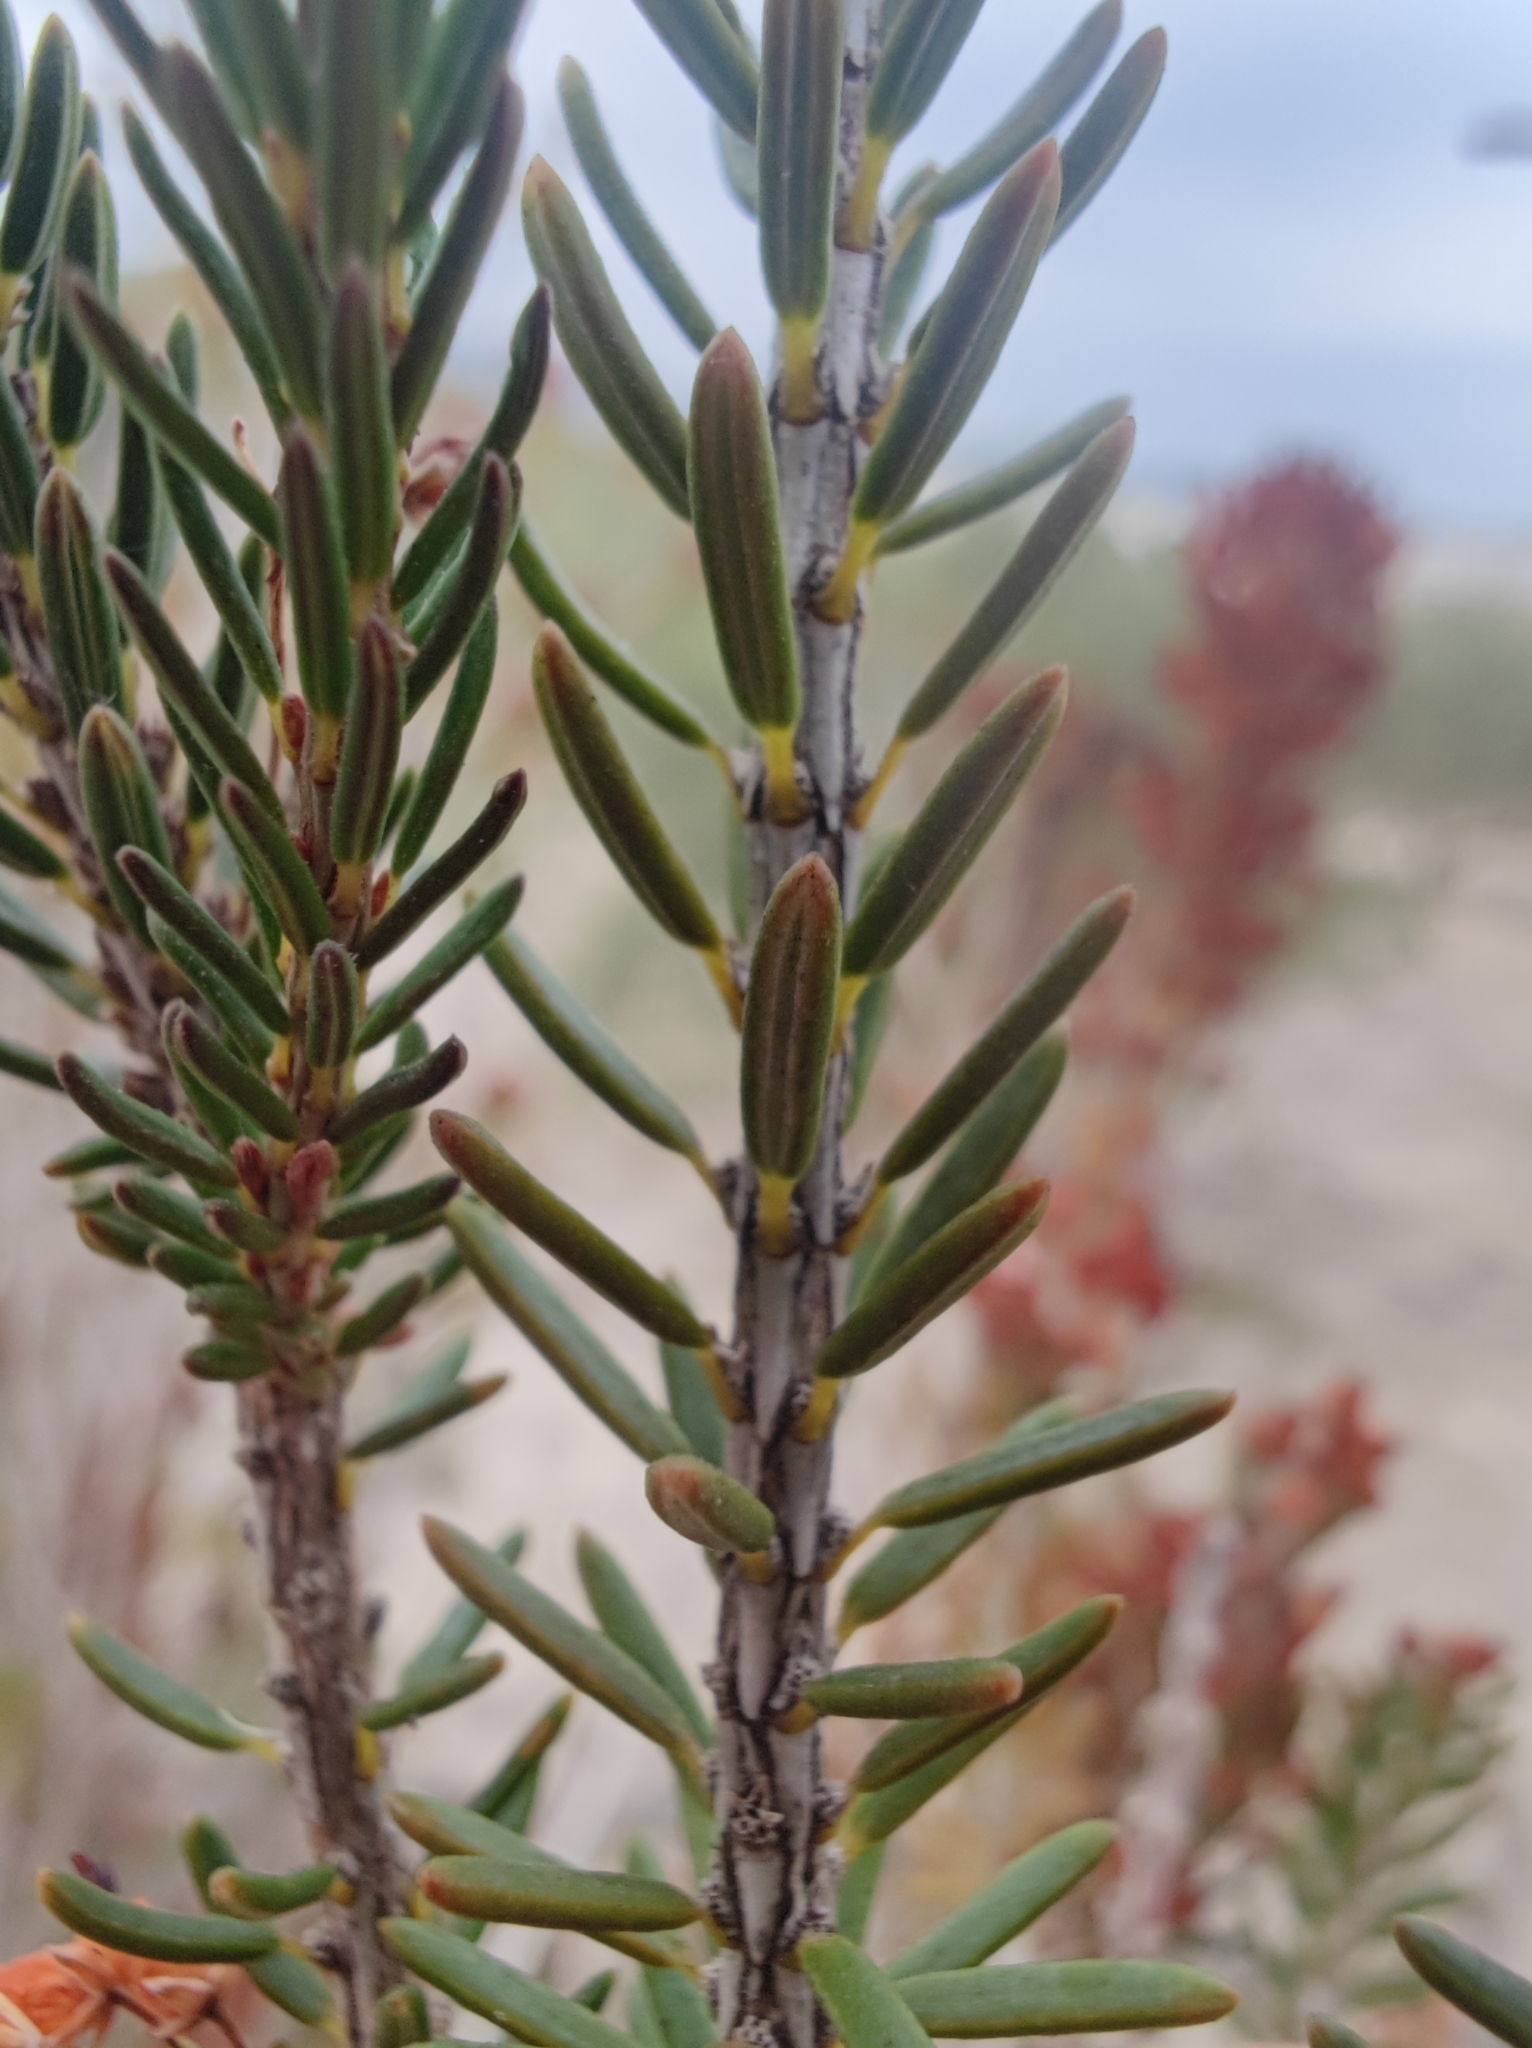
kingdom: Plantae
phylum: Tracheophyta
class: Magnoliopsida
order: Ericales
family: Ericaceae
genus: Erica
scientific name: Erica multiflora
